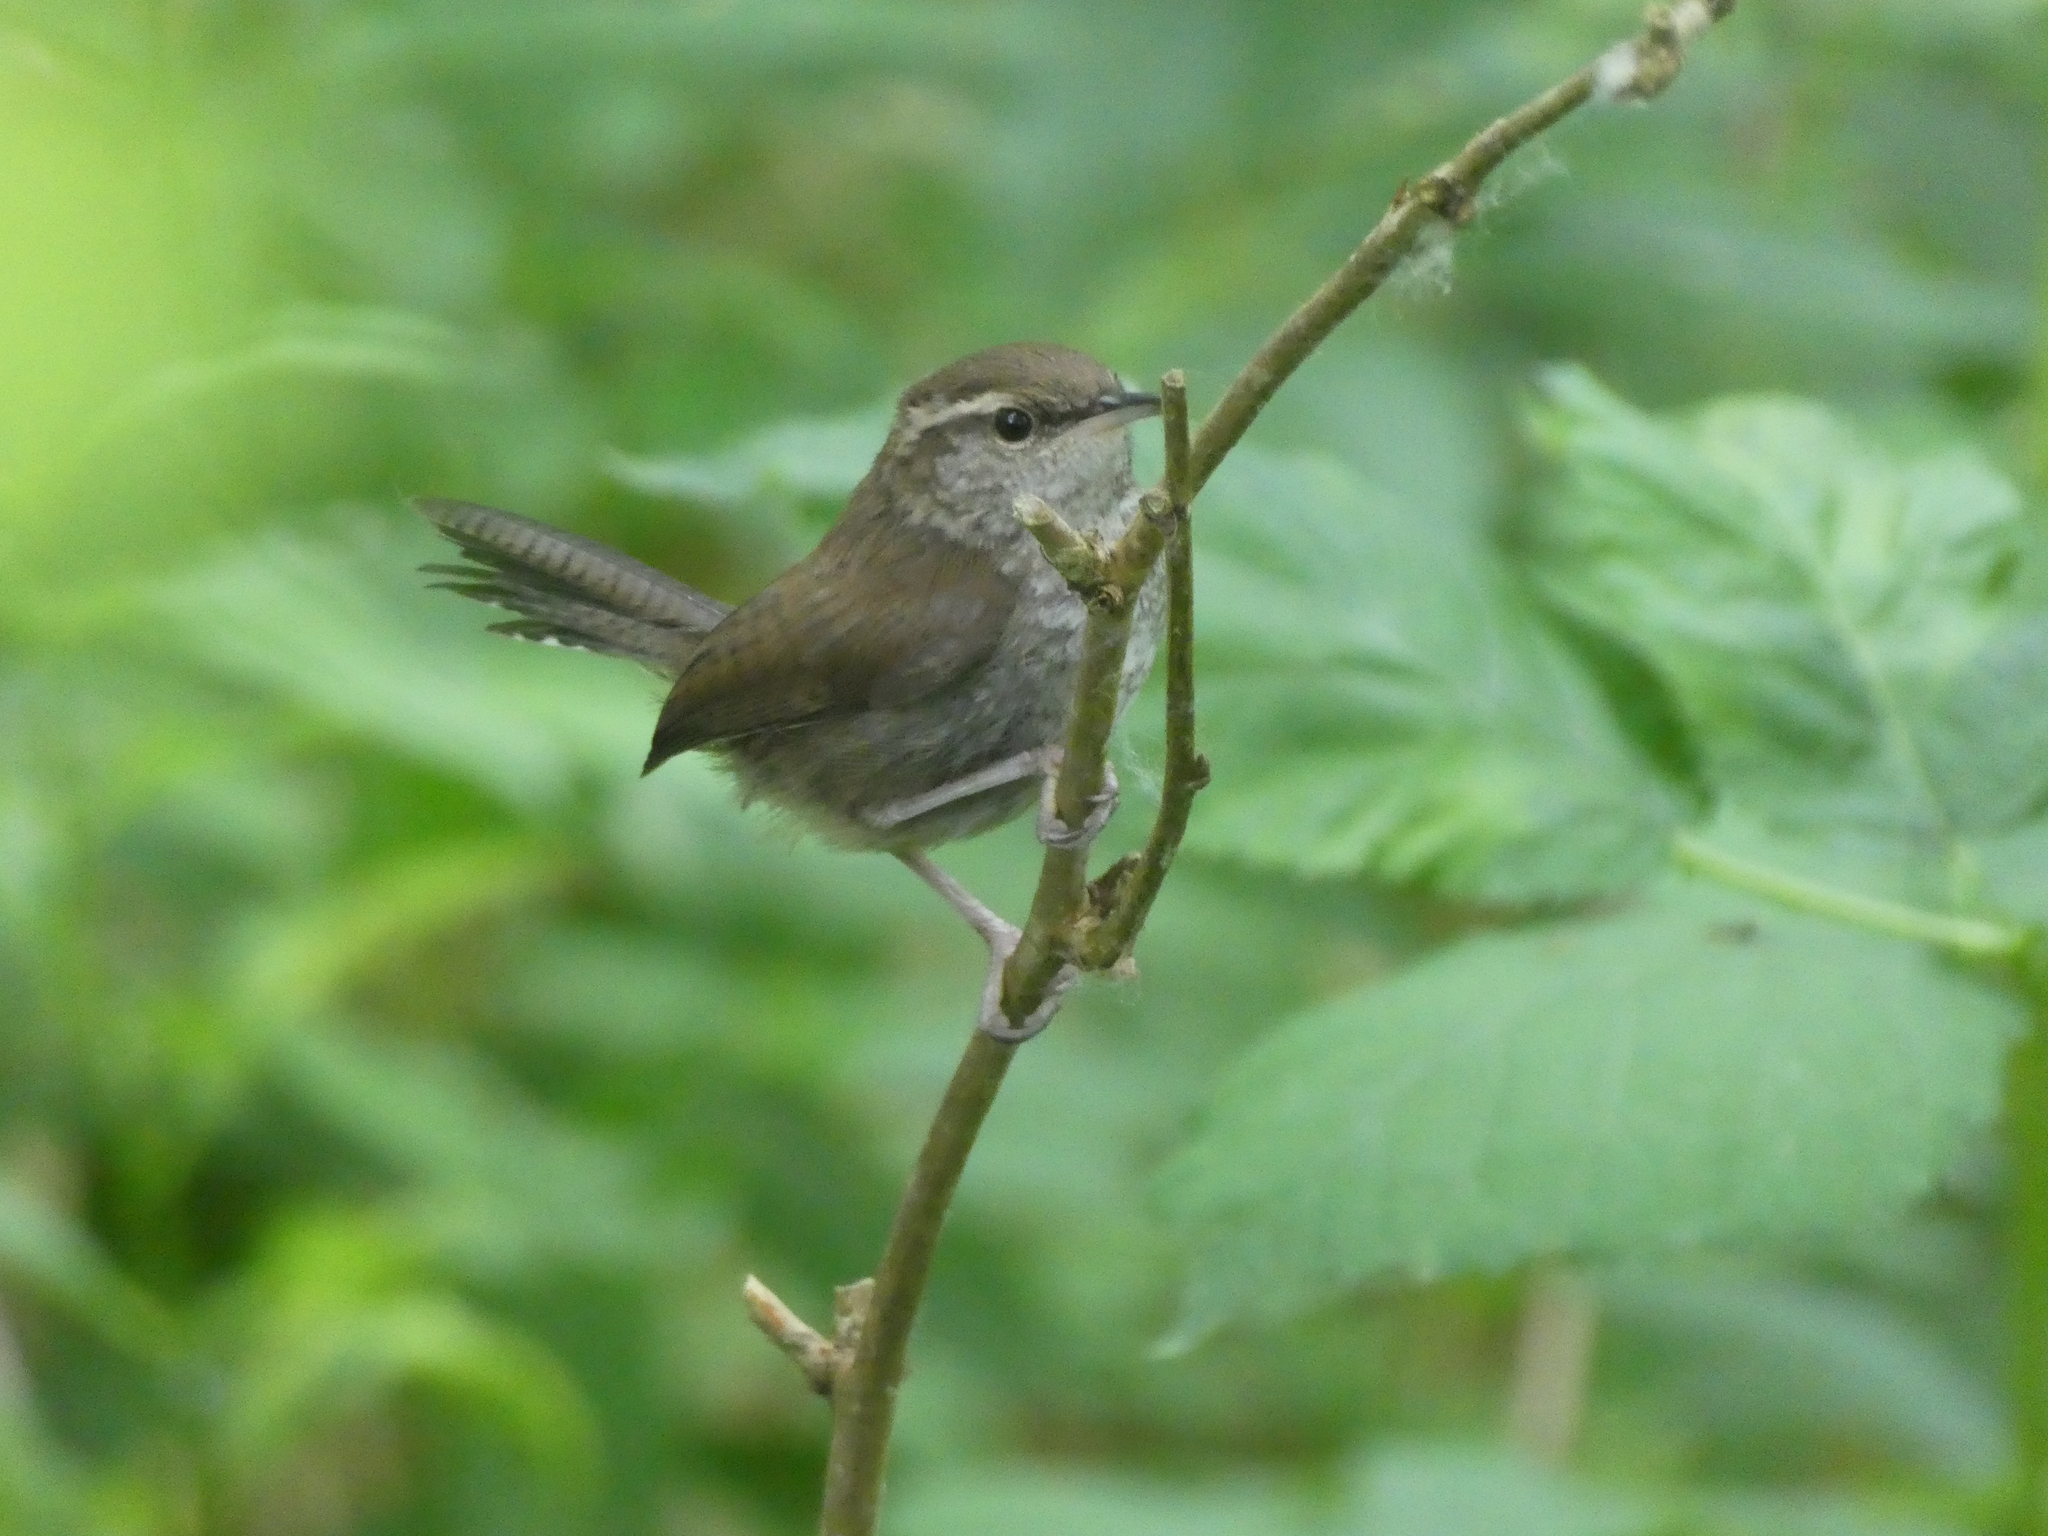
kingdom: Animalia
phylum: Chordata
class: Aves
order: Passeriformes
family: Troglodytidae
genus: Thryomanes
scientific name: Thryomanes bewickii
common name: Bewick's wren
